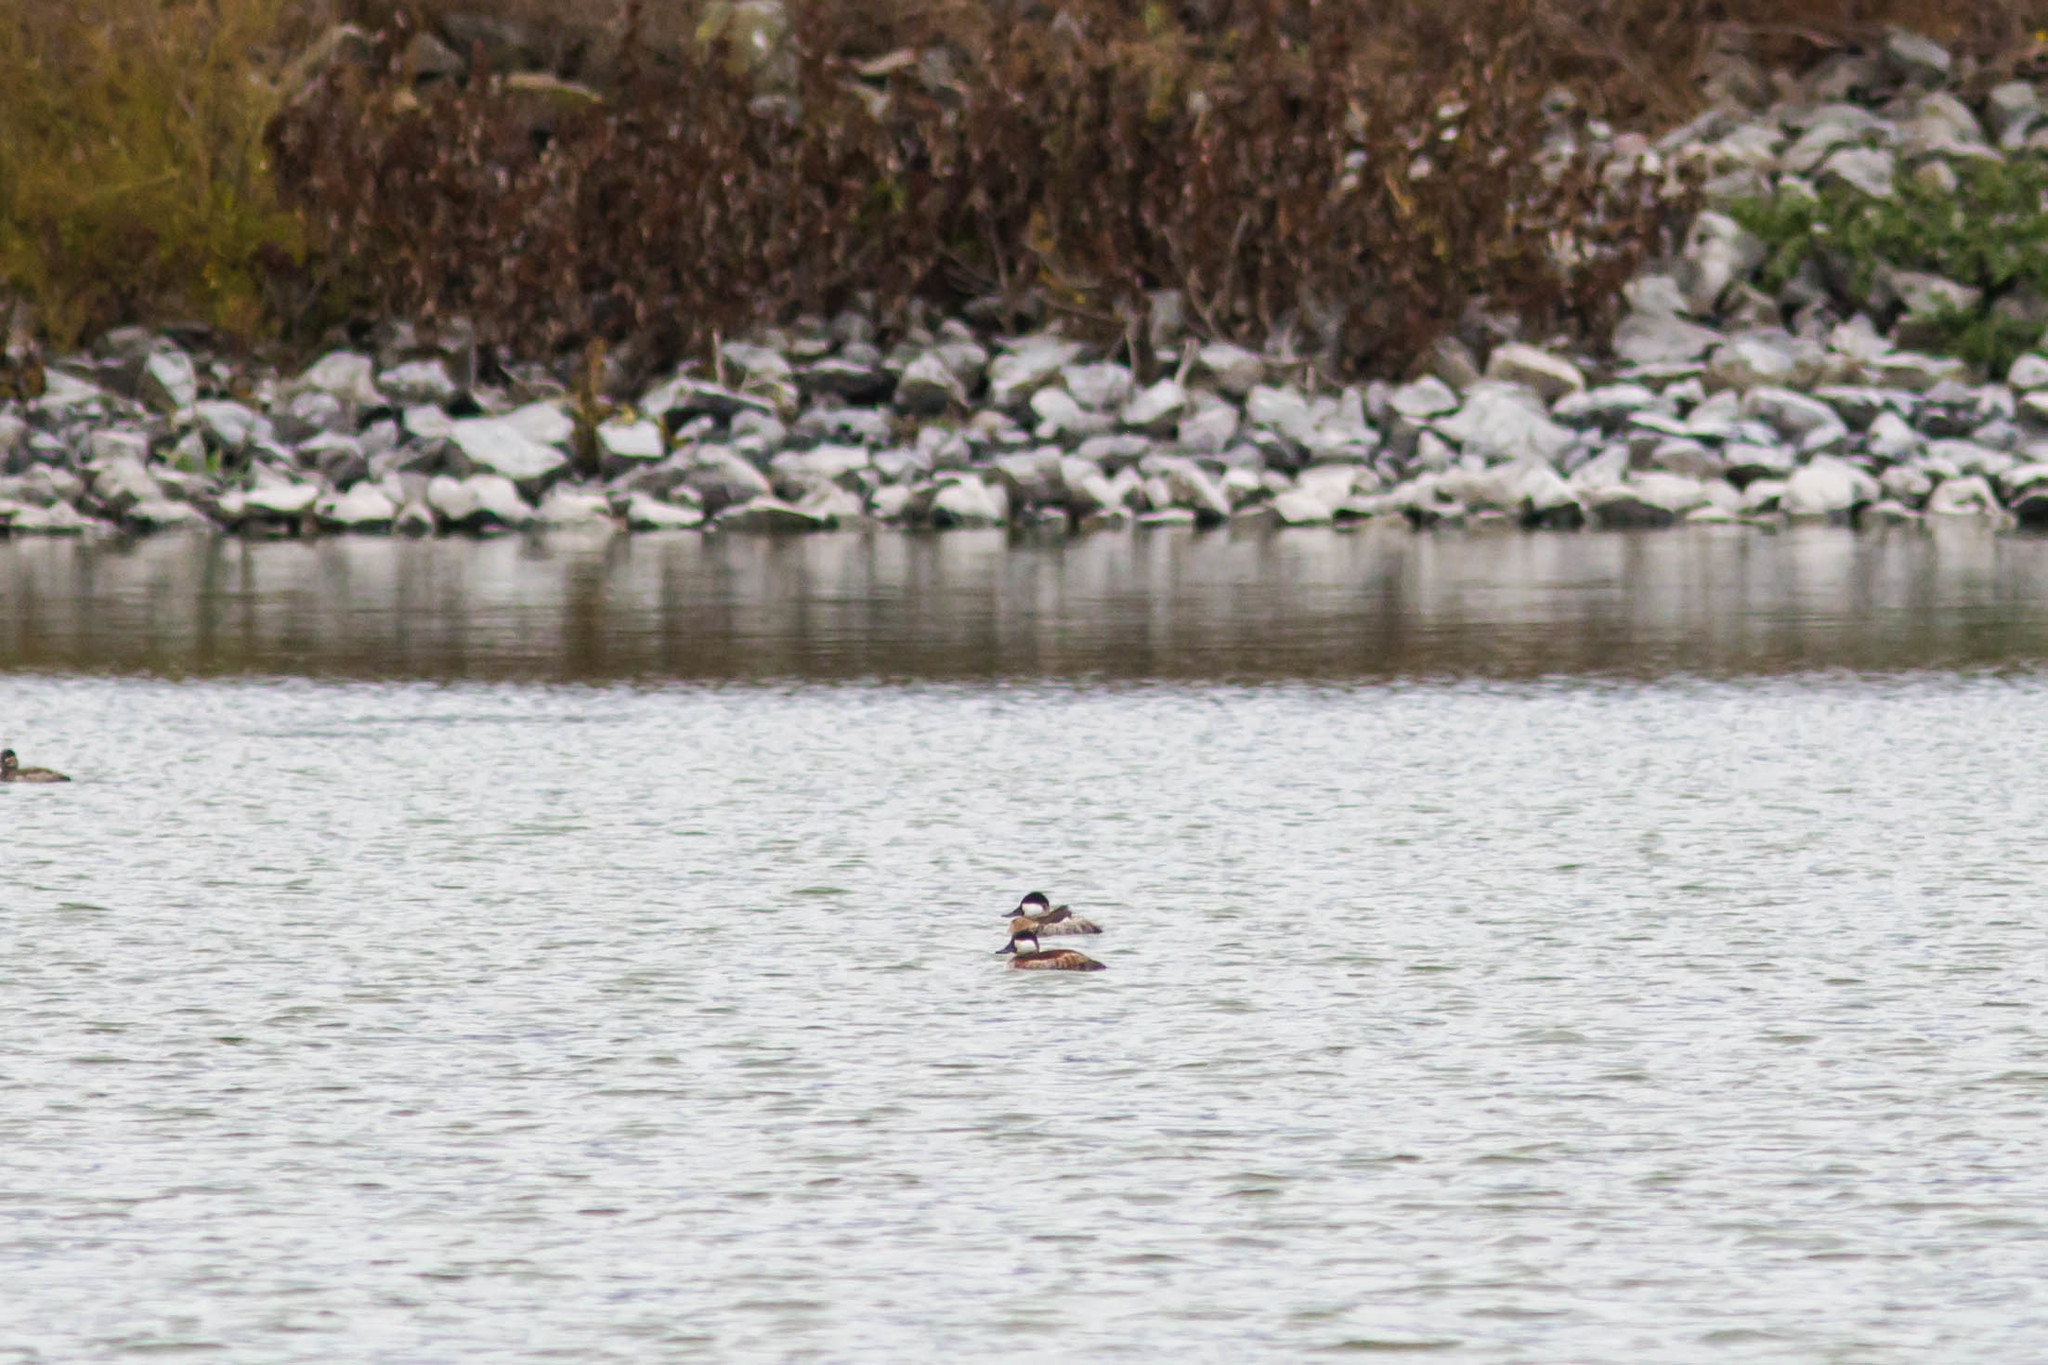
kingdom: Animalia
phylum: Chordata
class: Aves
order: Anseriformes
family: Anatidae
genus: Oxyura
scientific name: Oxyura jamaicensis
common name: Ruddy duck
